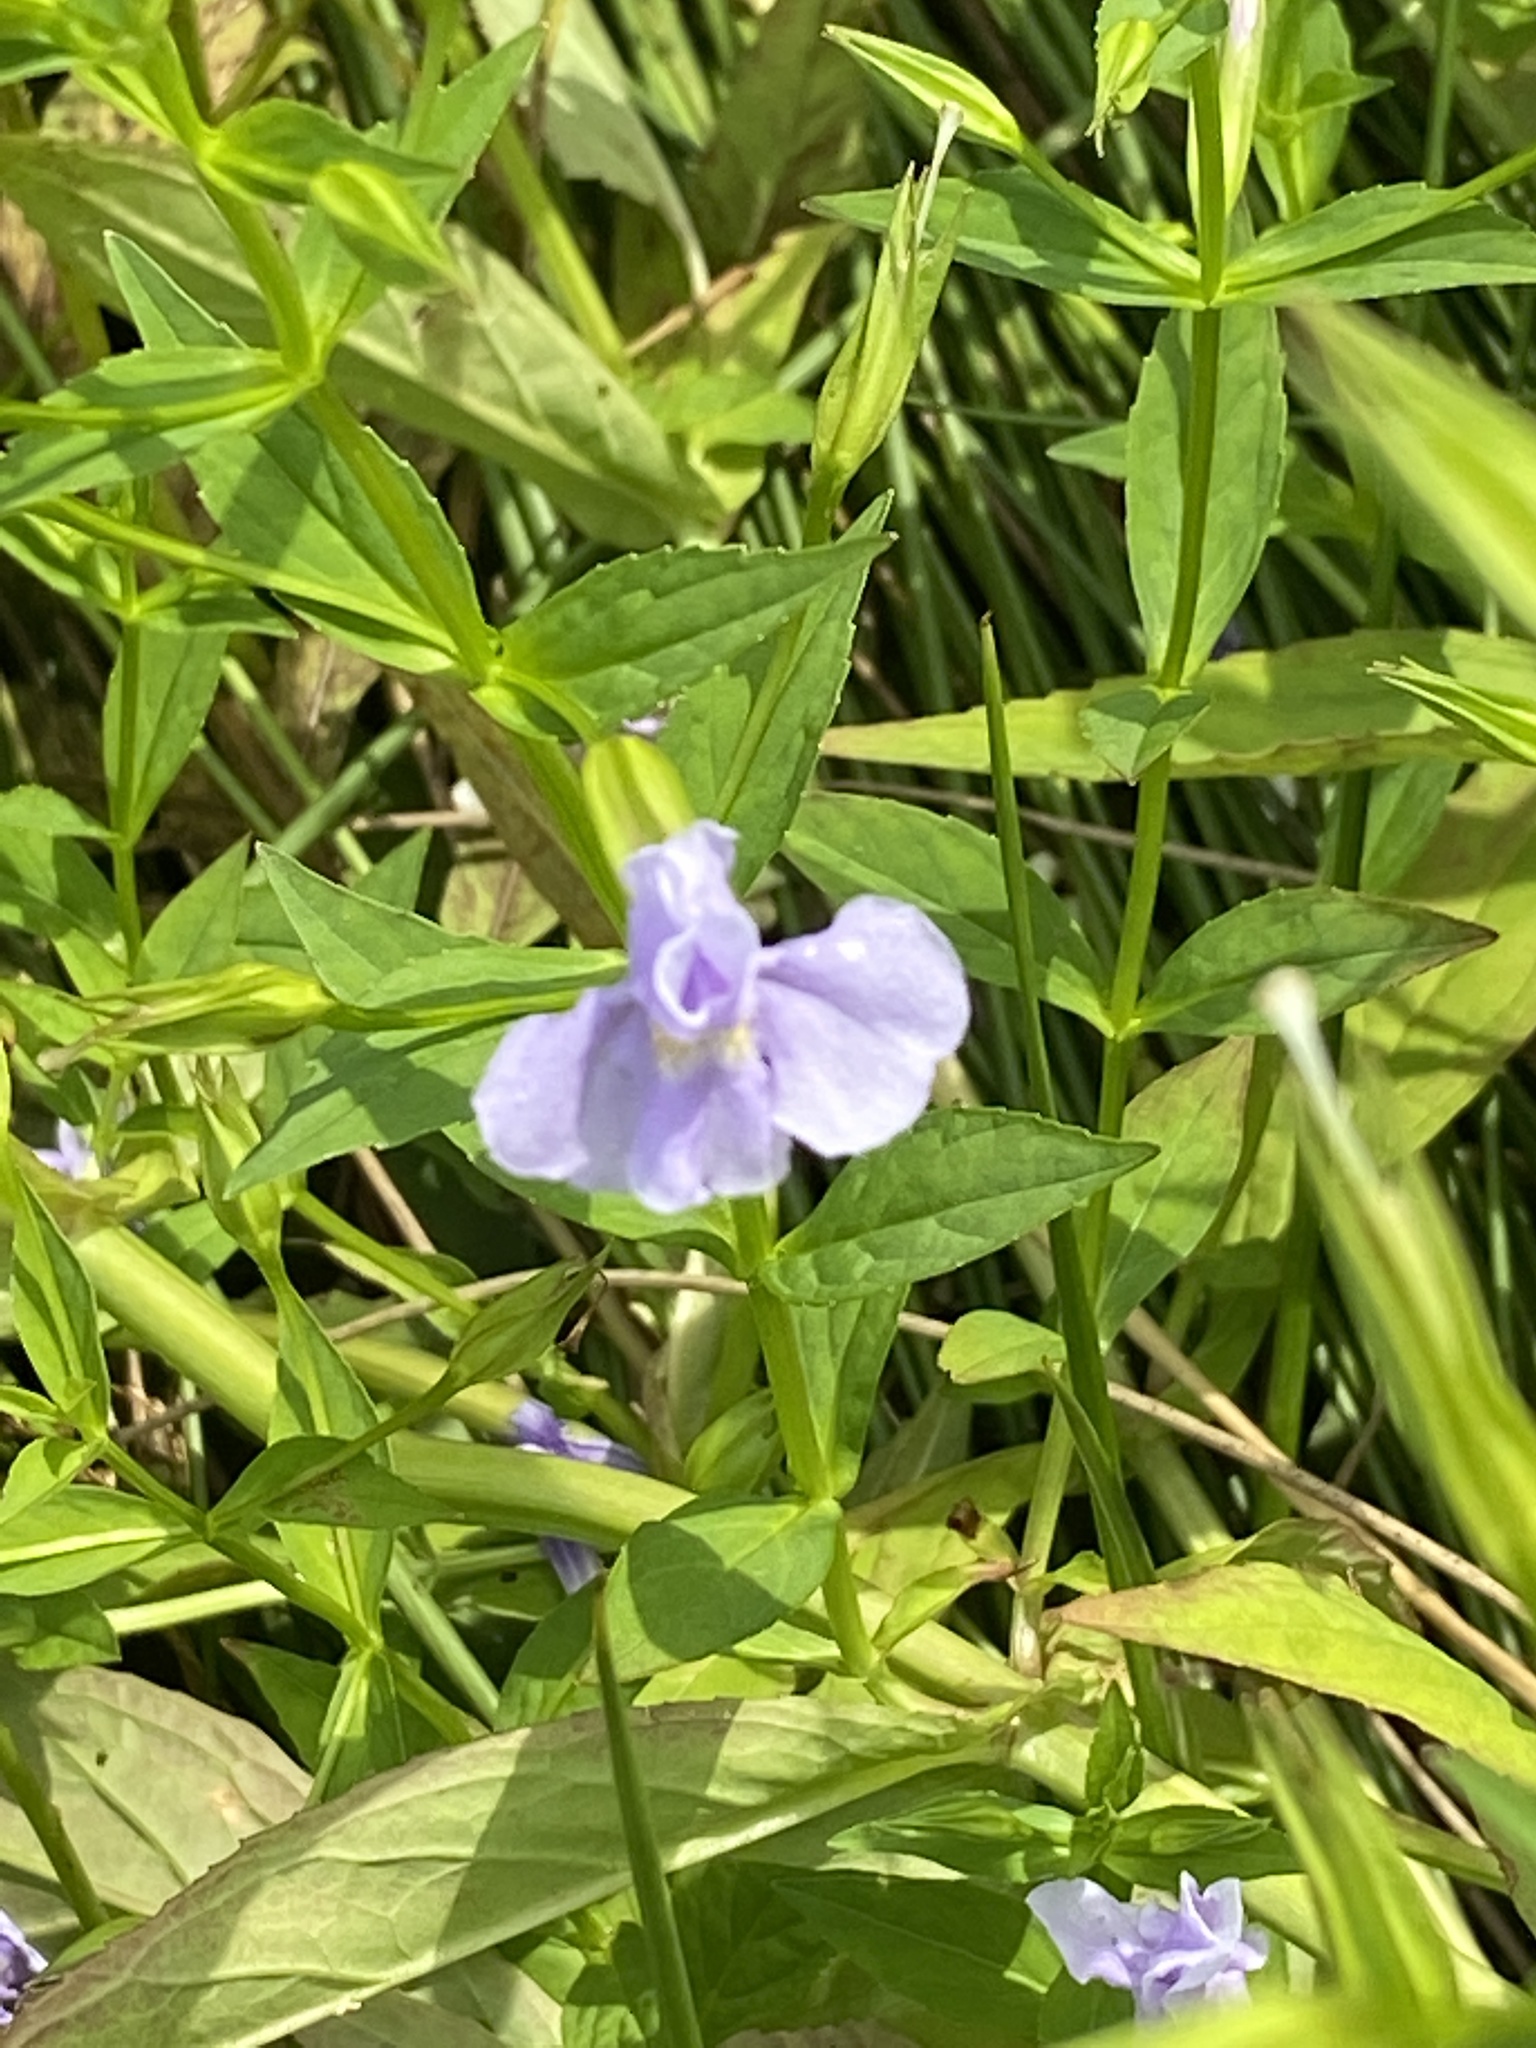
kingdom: Plantae
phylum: Tracheophyta
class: Magnoliopsida
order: Lamiales
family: Phrymaceae
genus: Mimulus
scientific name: Mimulus ringens
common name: Allegheny monkeyflower
